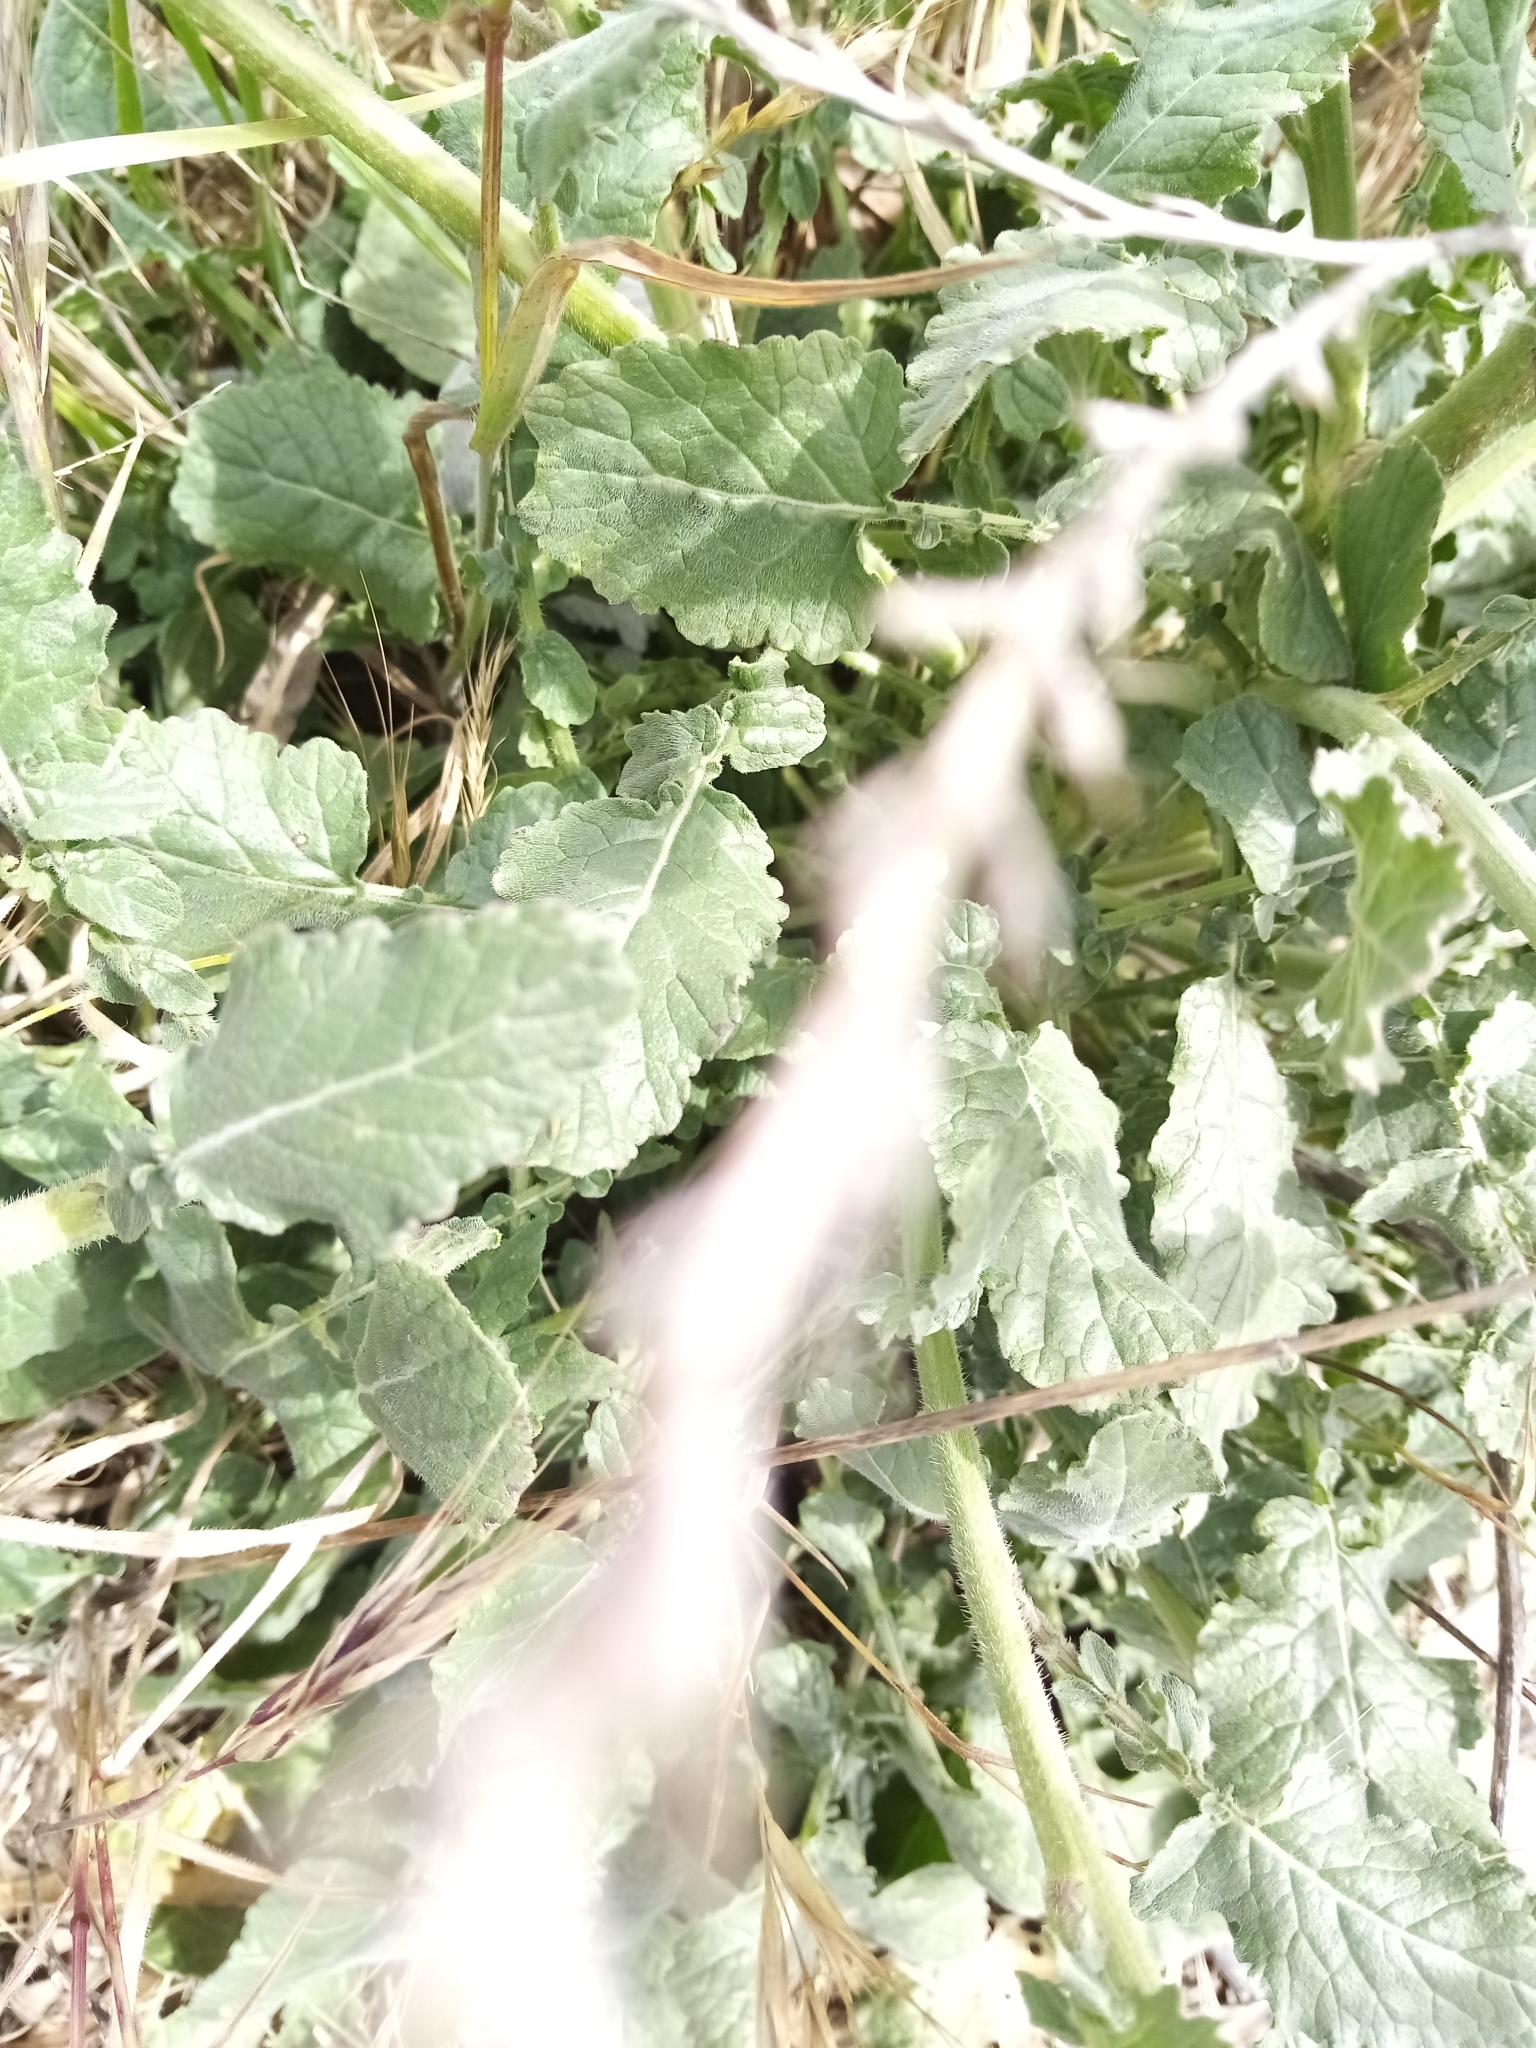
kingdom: Plantae
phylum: Tracheophyta
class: Magnoliopsida
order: Brassicales
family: Brassicaceae
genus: Hirschfeldia
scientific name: Hirschfeldia incana
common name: Hoary mustard
